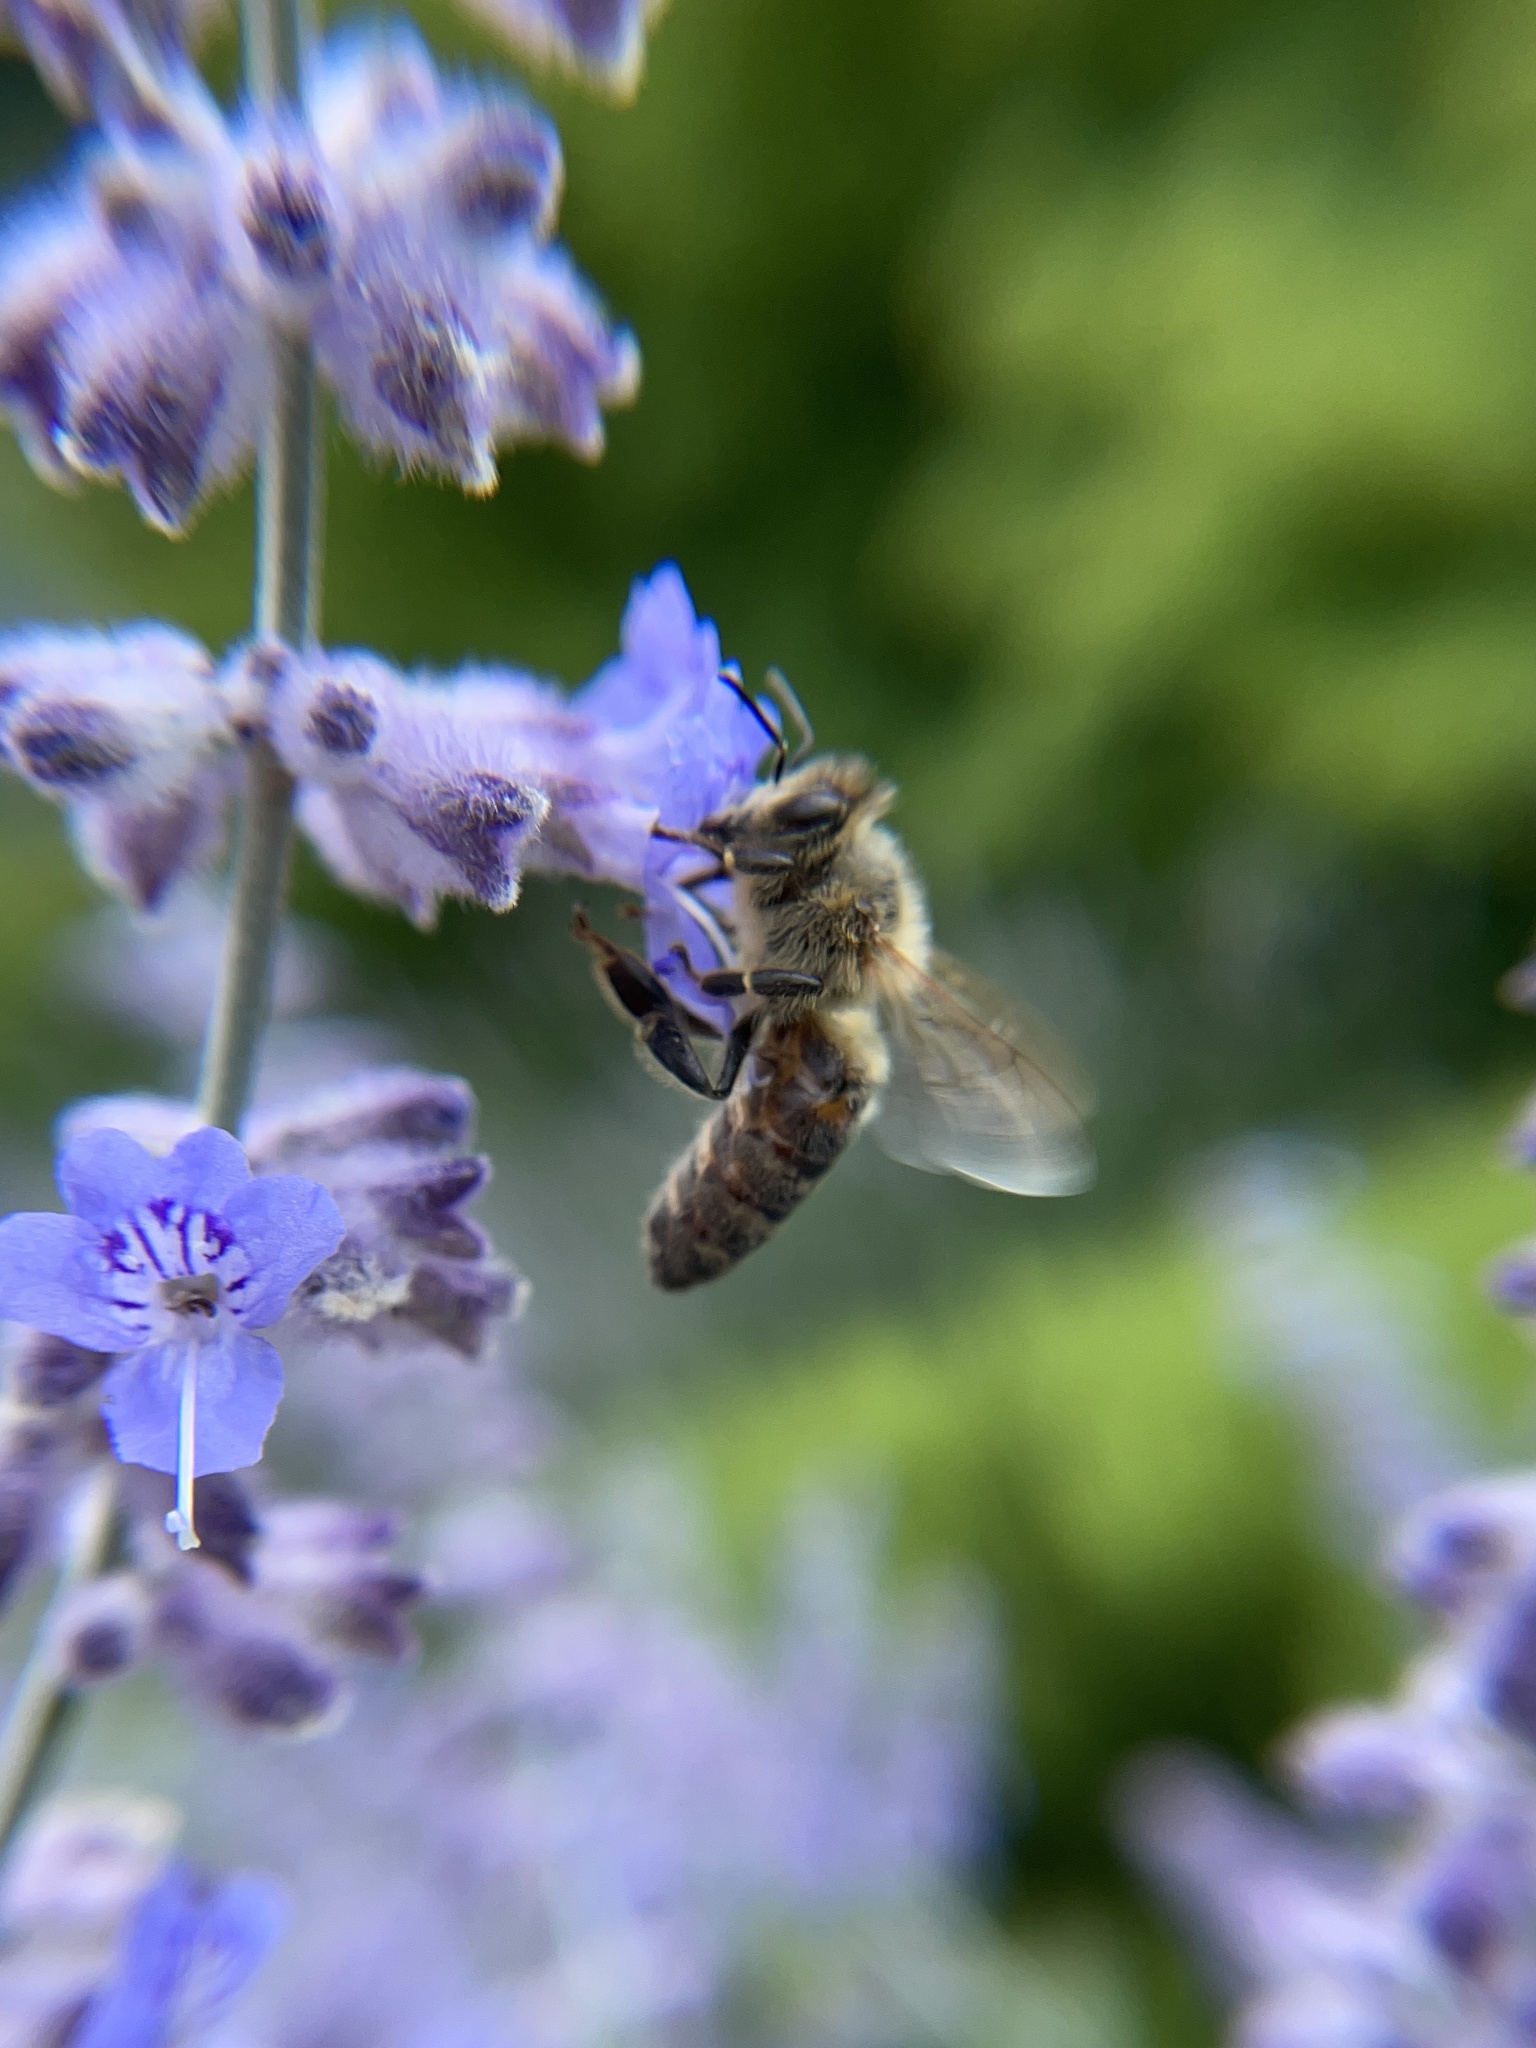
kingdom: Animalia
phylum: Arthropoda
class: Insecta
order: Hymenoptera
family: Apidae
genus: Apis
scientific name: Apis mellifera
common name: Honey bee
